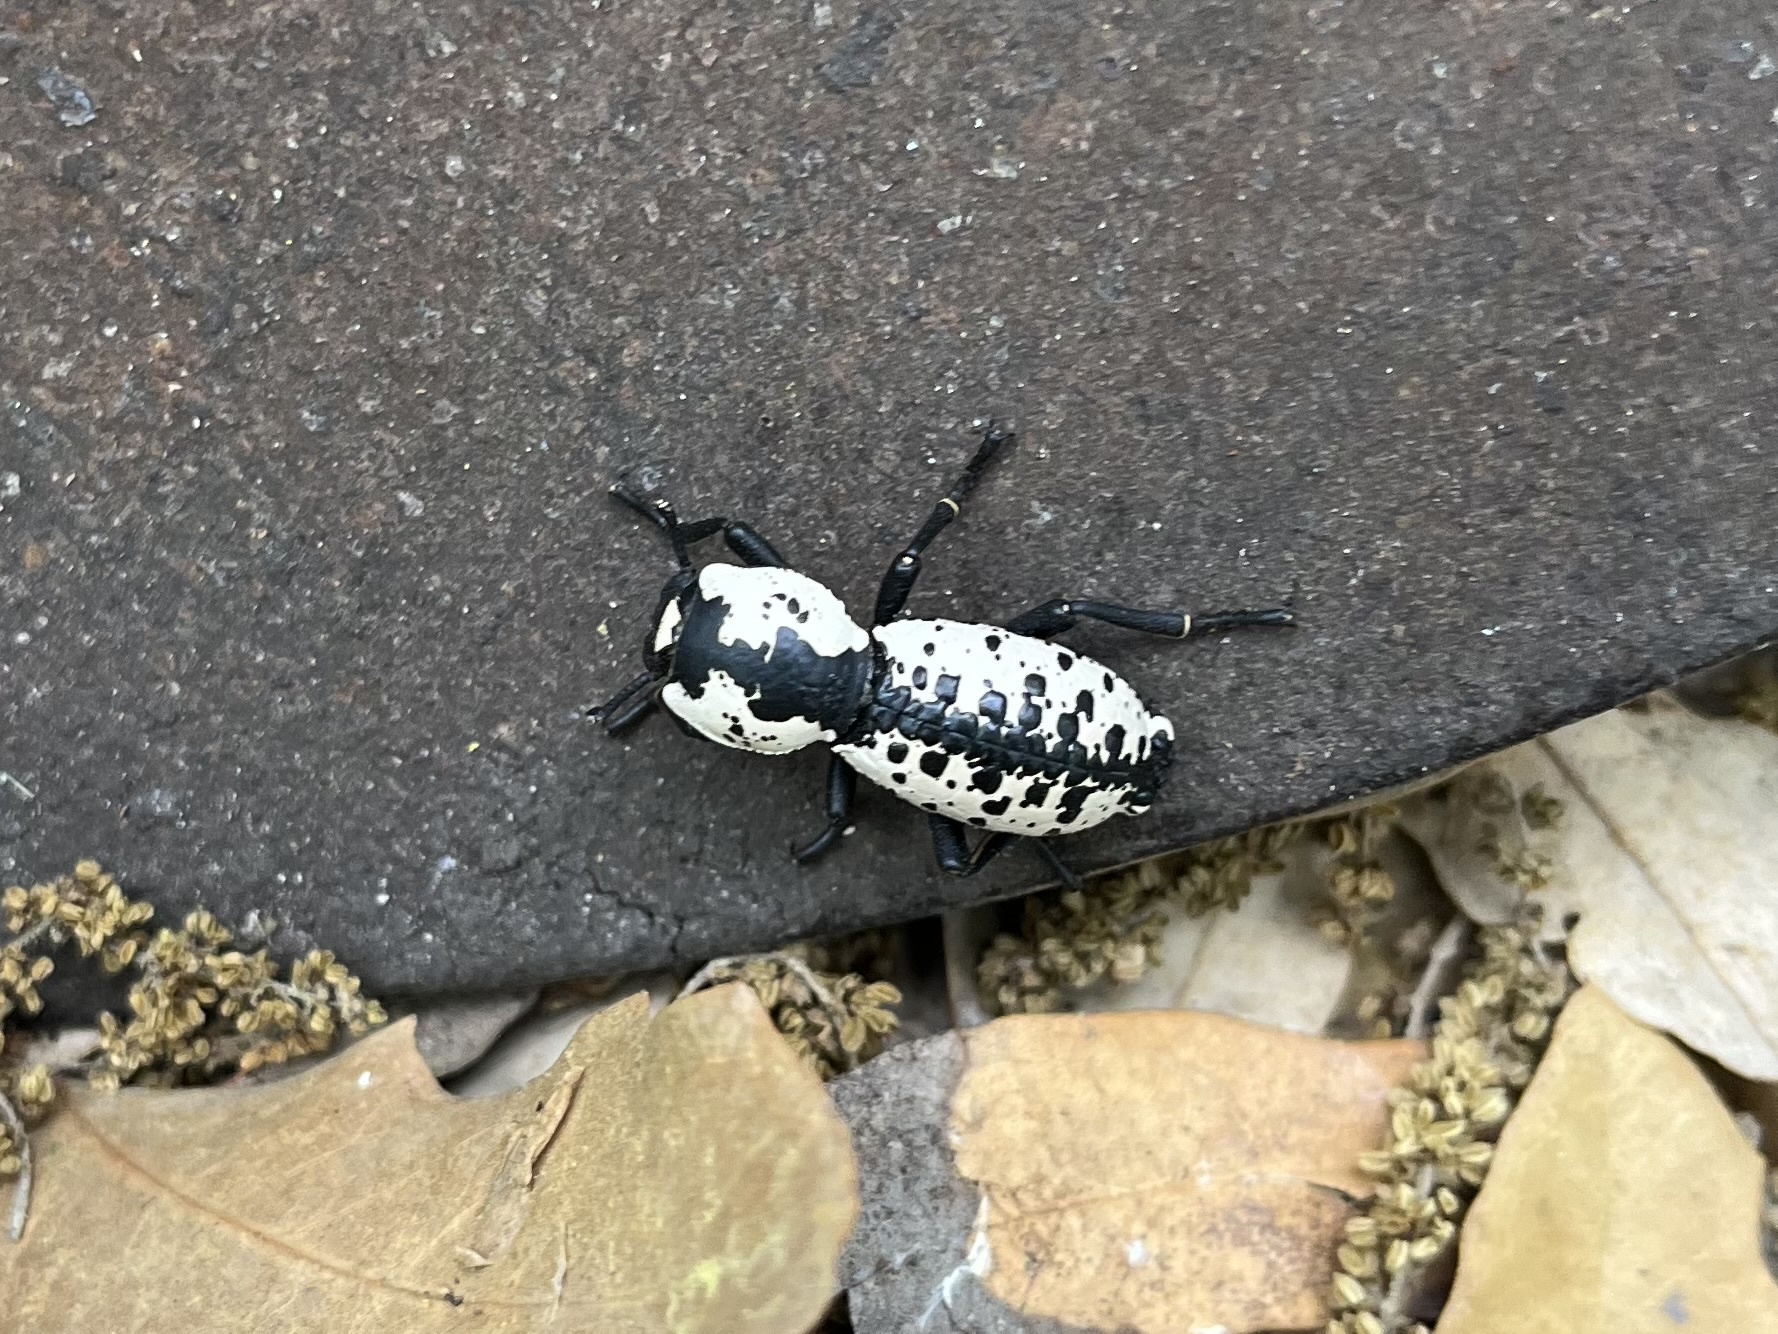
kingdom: Animalia
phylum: Arthropoda
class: Insecta
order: Coleoptera
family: Zopheridae
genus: Zopherus
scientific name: Zopherus nodulosus
